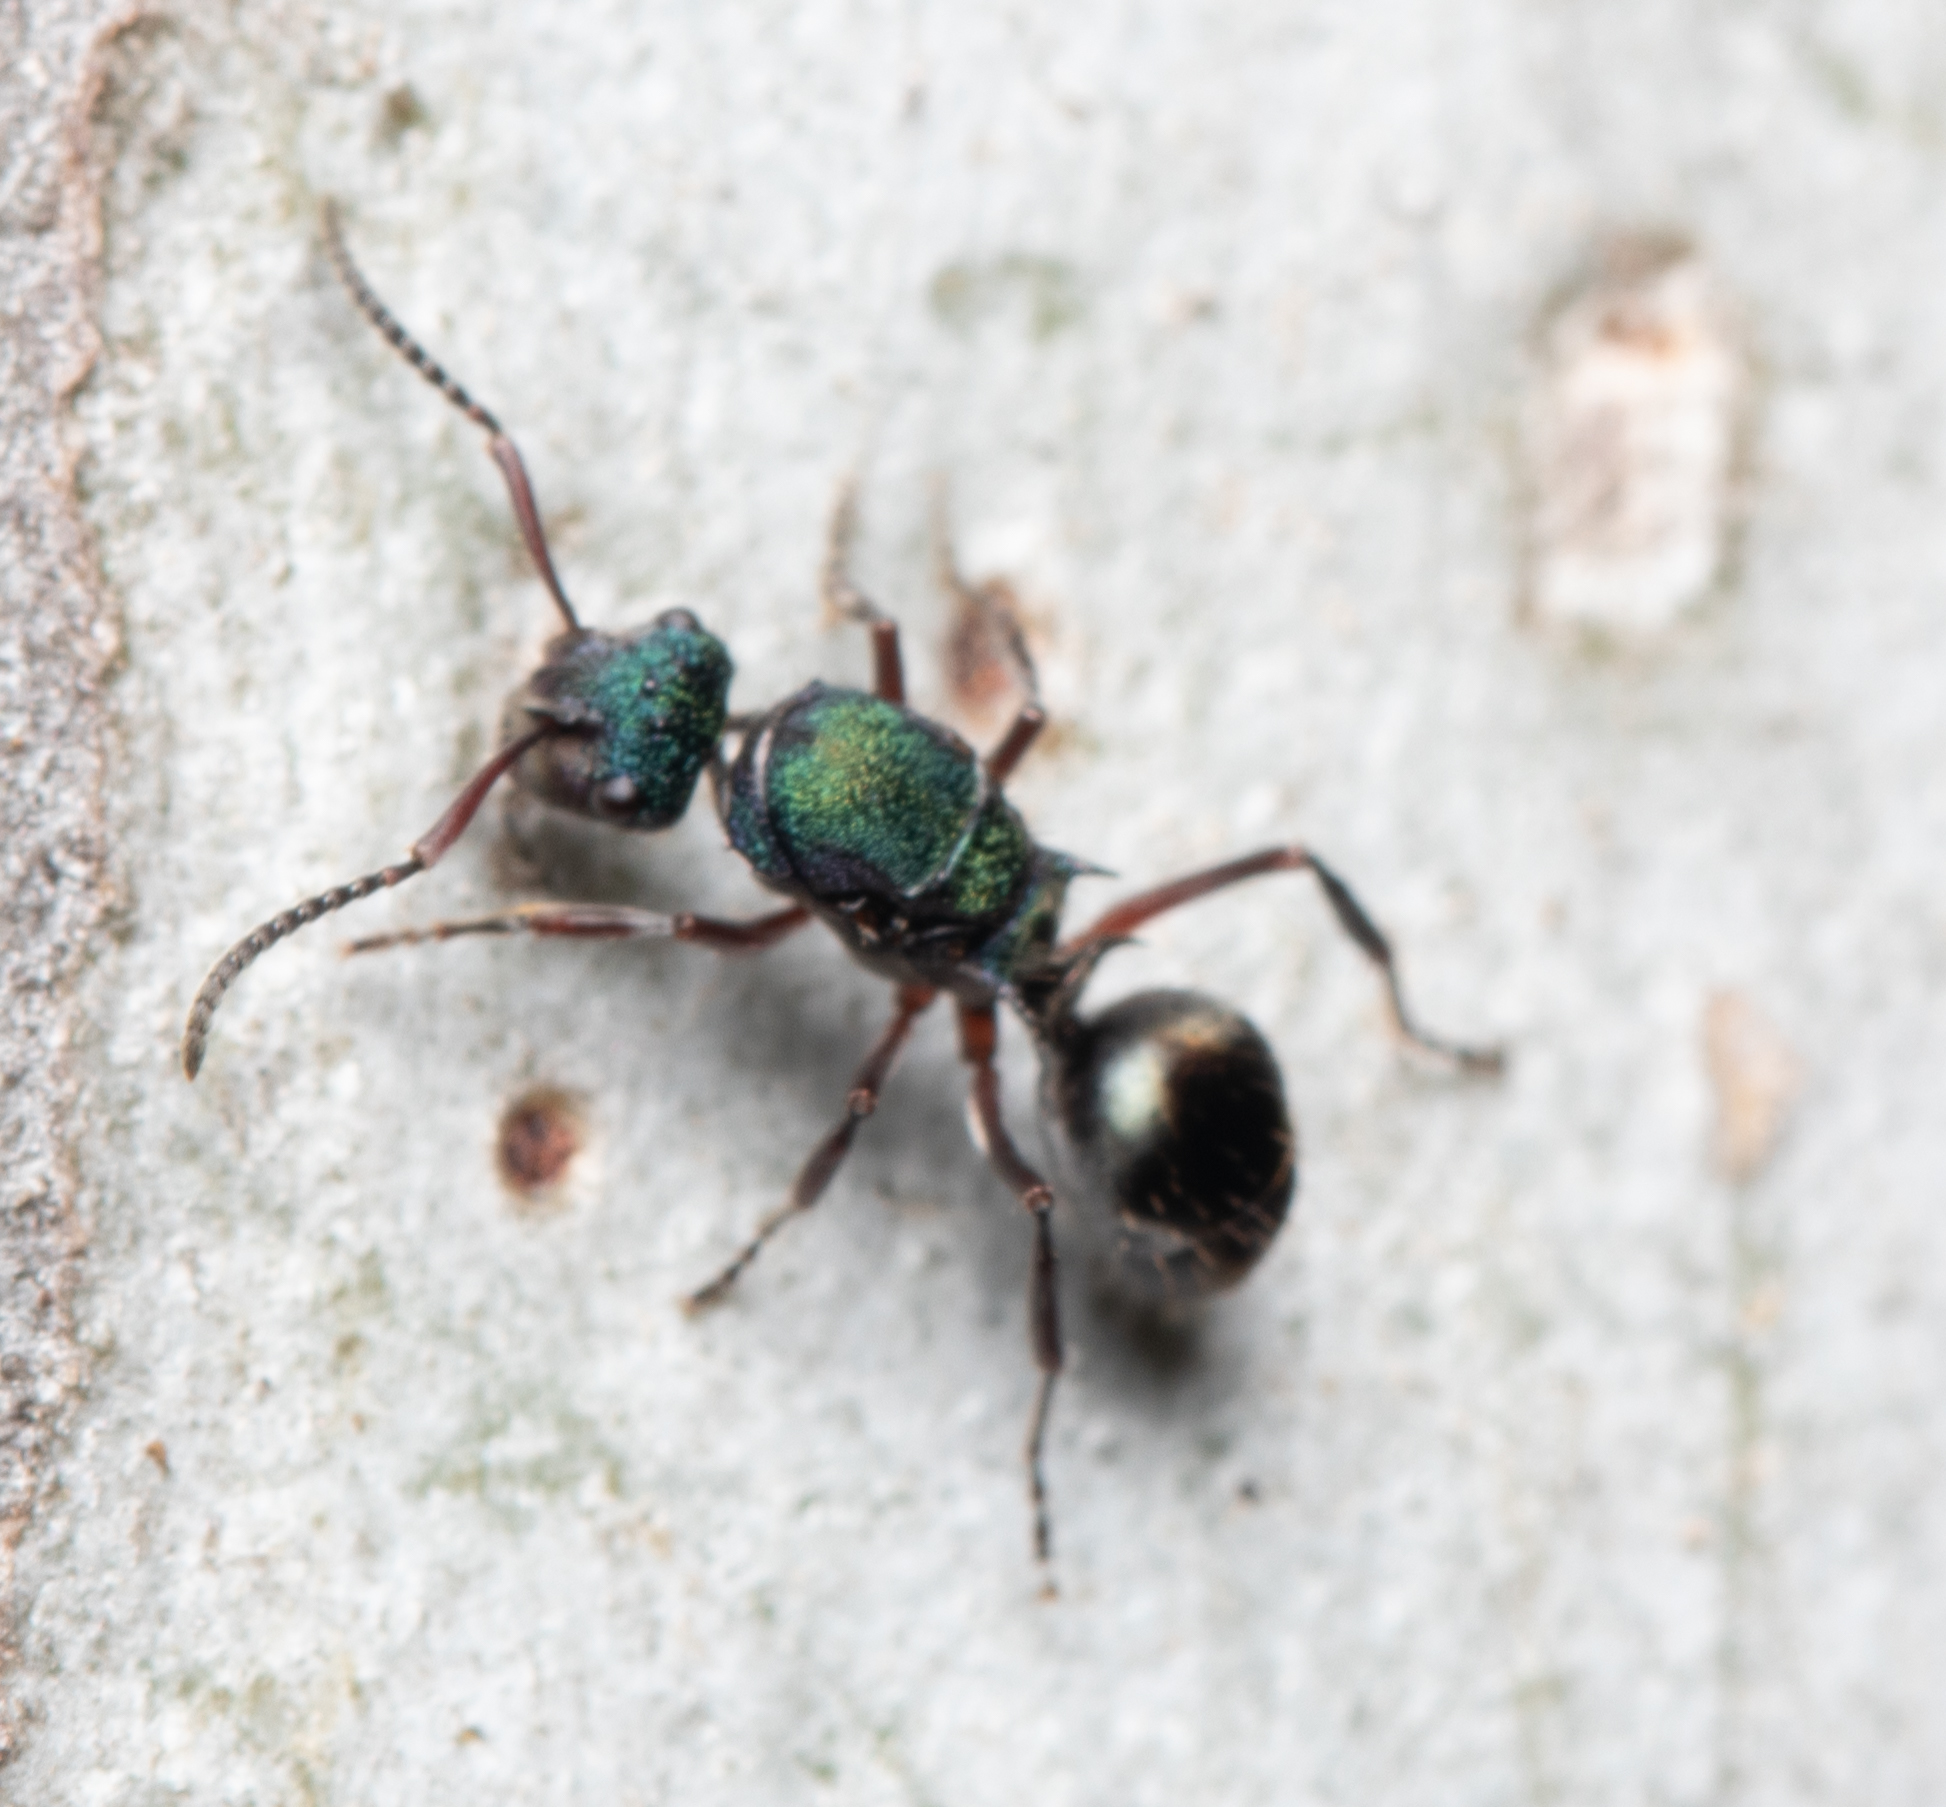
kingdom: Animalia
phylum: Arthropoda
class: Insecta
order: Hymenoptera
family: Formicidae
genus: Polyrhachis
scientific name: Polyrhachis hookeri
